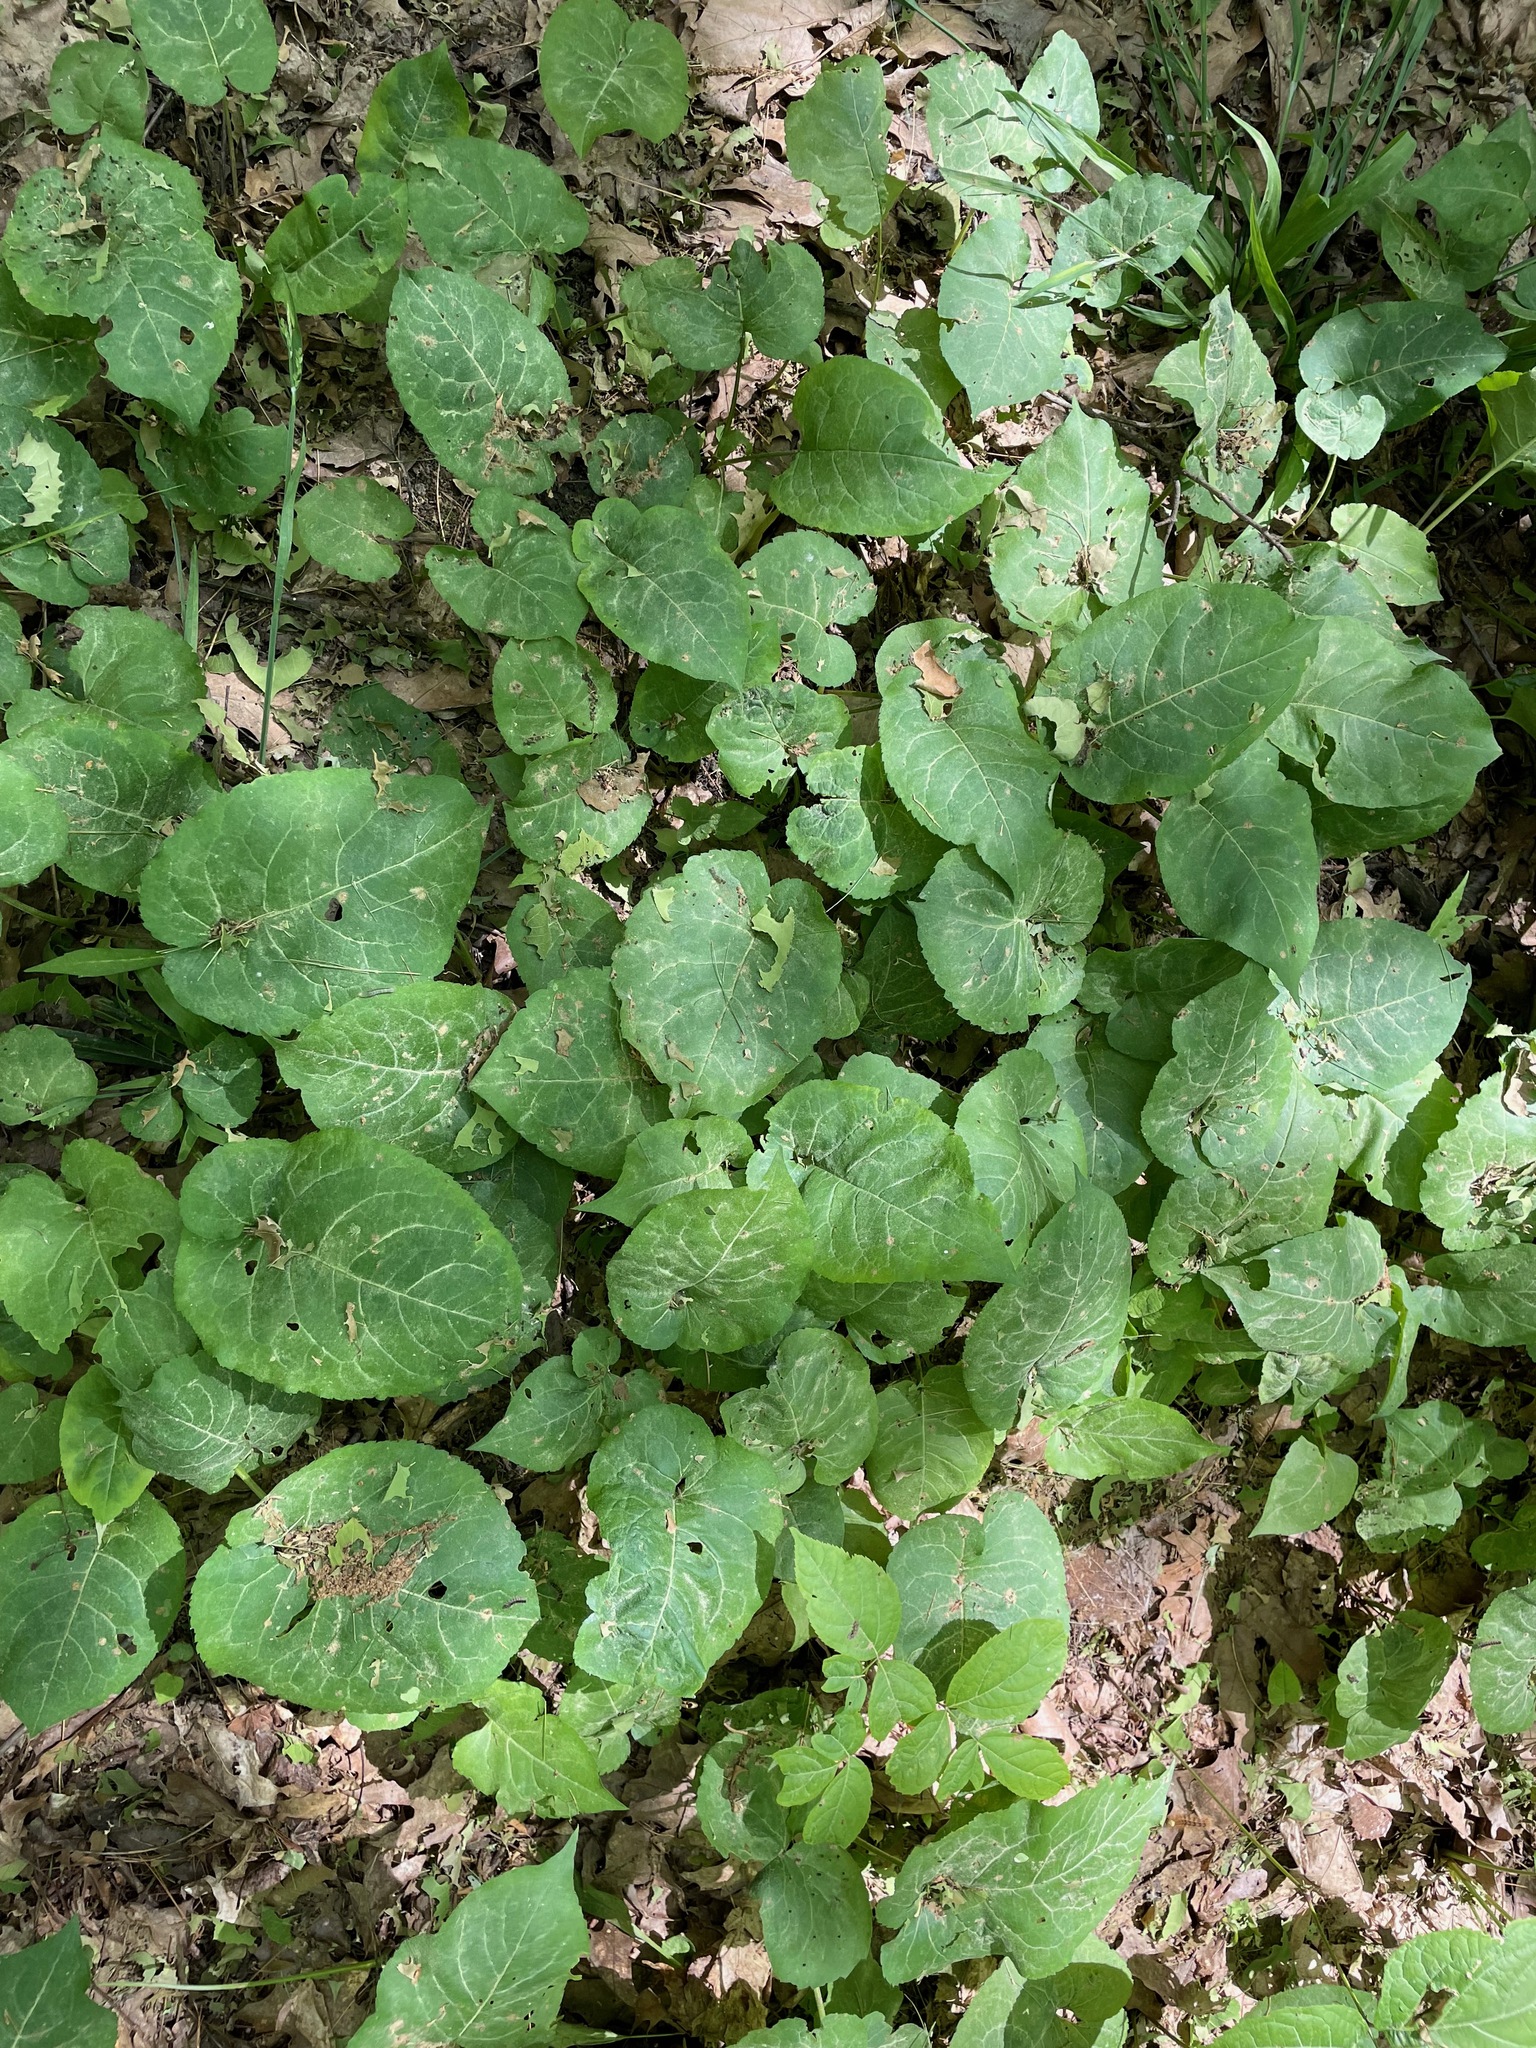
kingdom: Plantae
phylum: Tracheophyta
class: Magnoliopsida
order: Asterales
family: Asteraceae
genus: Eurybia
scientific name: Eurybia macrophylla
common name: Big-leaved aster
